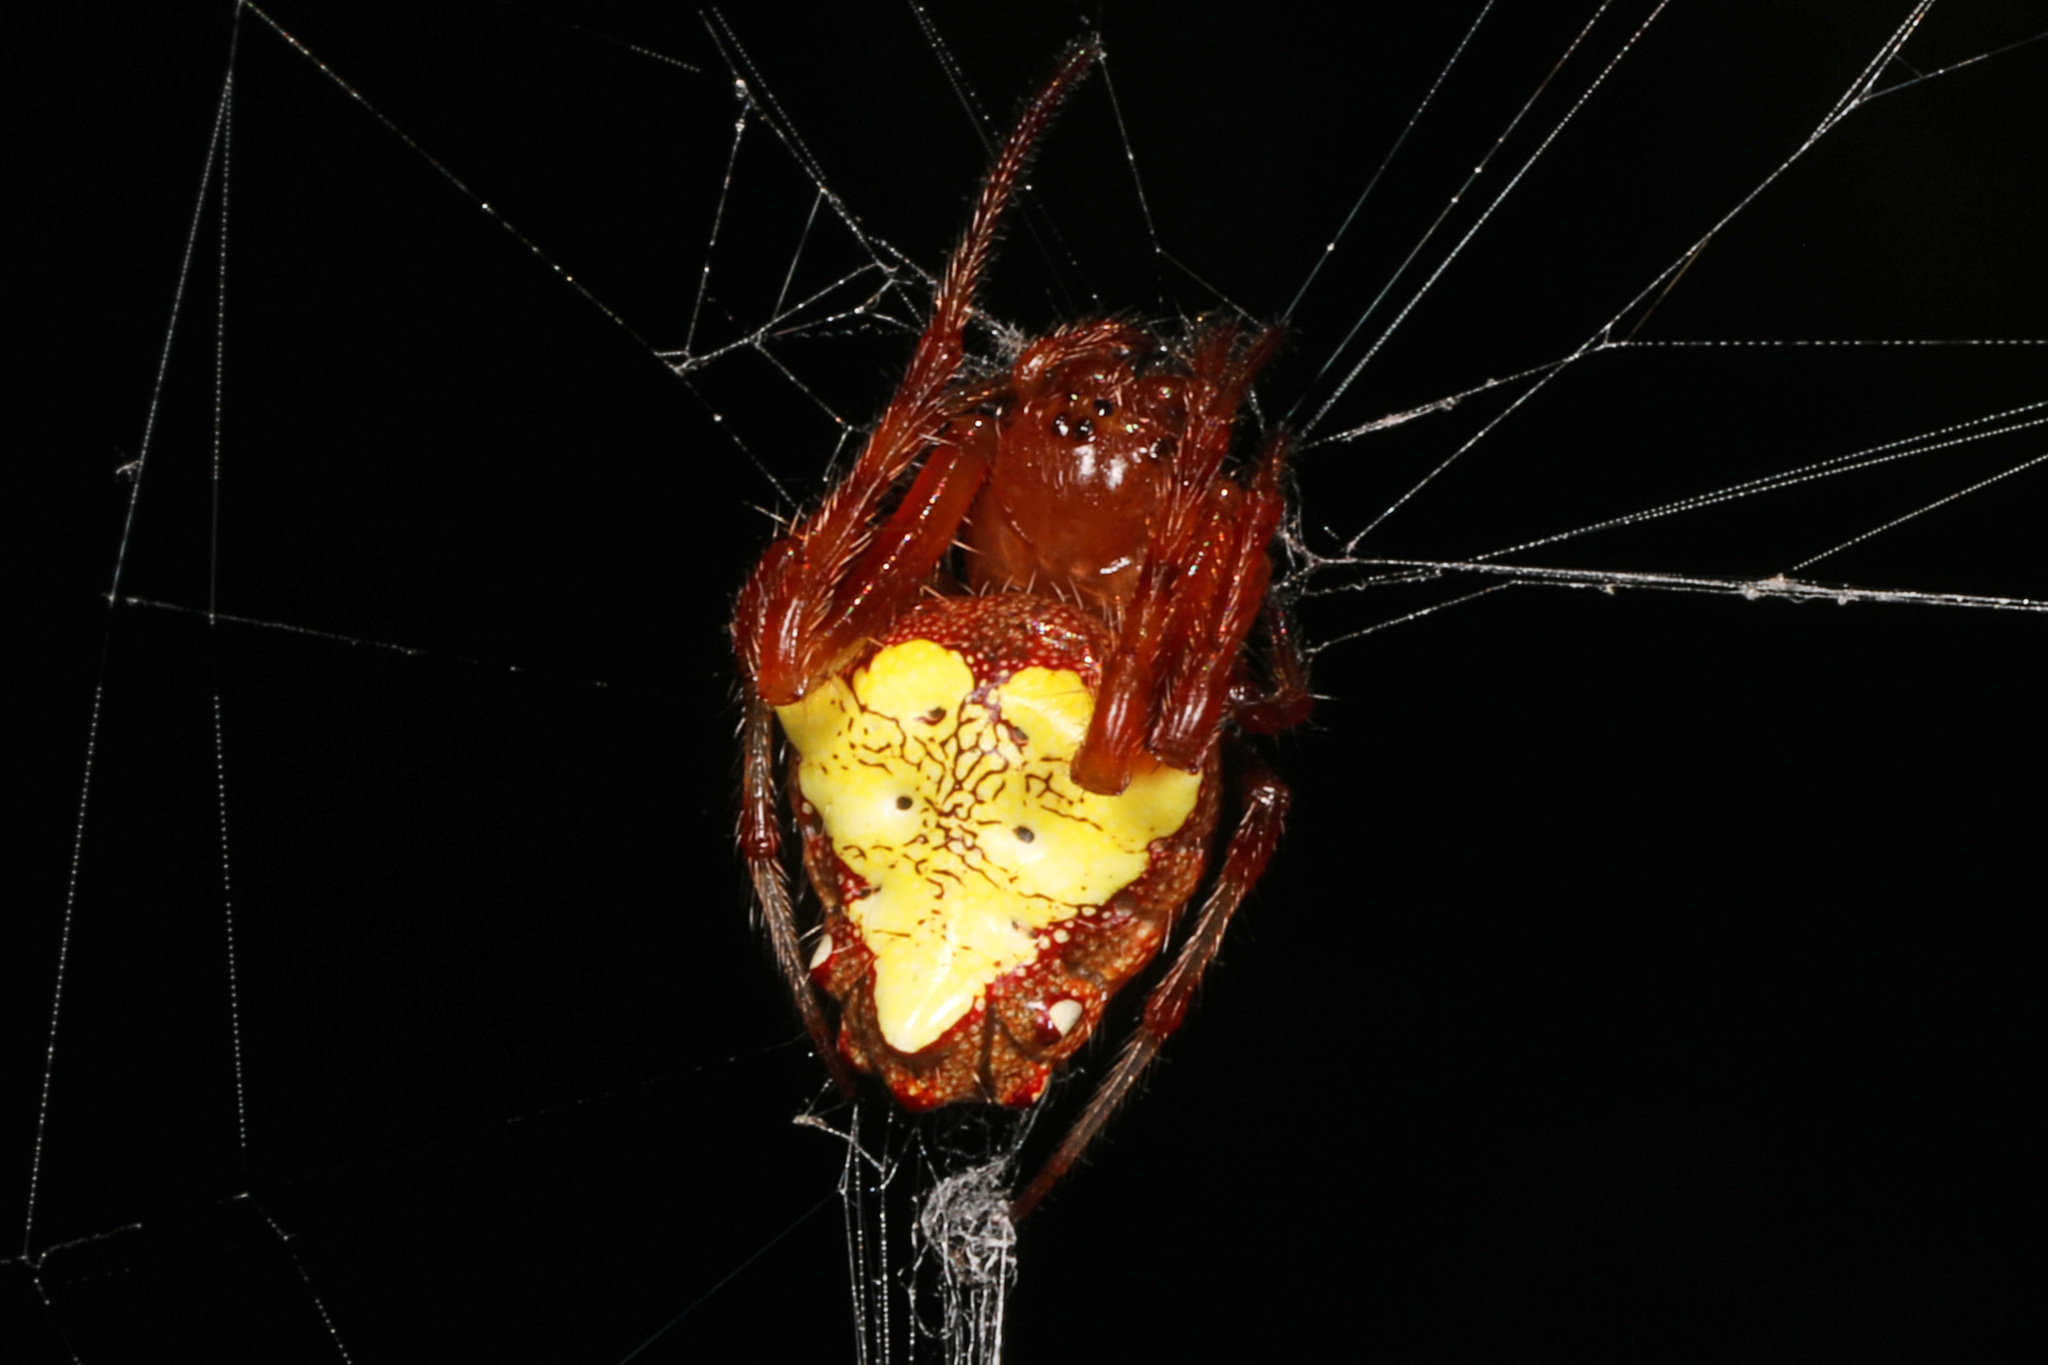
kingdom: Animalia
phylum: Arthropoda
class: Arachnida
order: Araneae
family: Araneidae
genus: Verrucosa
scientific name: Verrucosa arenata
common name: Orb weavers
